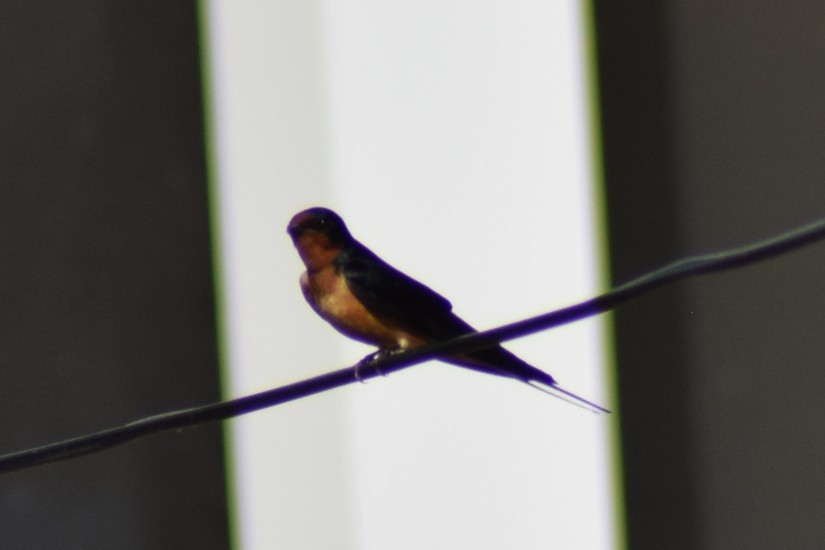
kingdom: Animalia
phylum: Chordata
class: Aves
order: Passeriformes
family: Hirundinidae
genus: Hirundo
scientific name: Hirundo rustica
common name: Barn swallow
